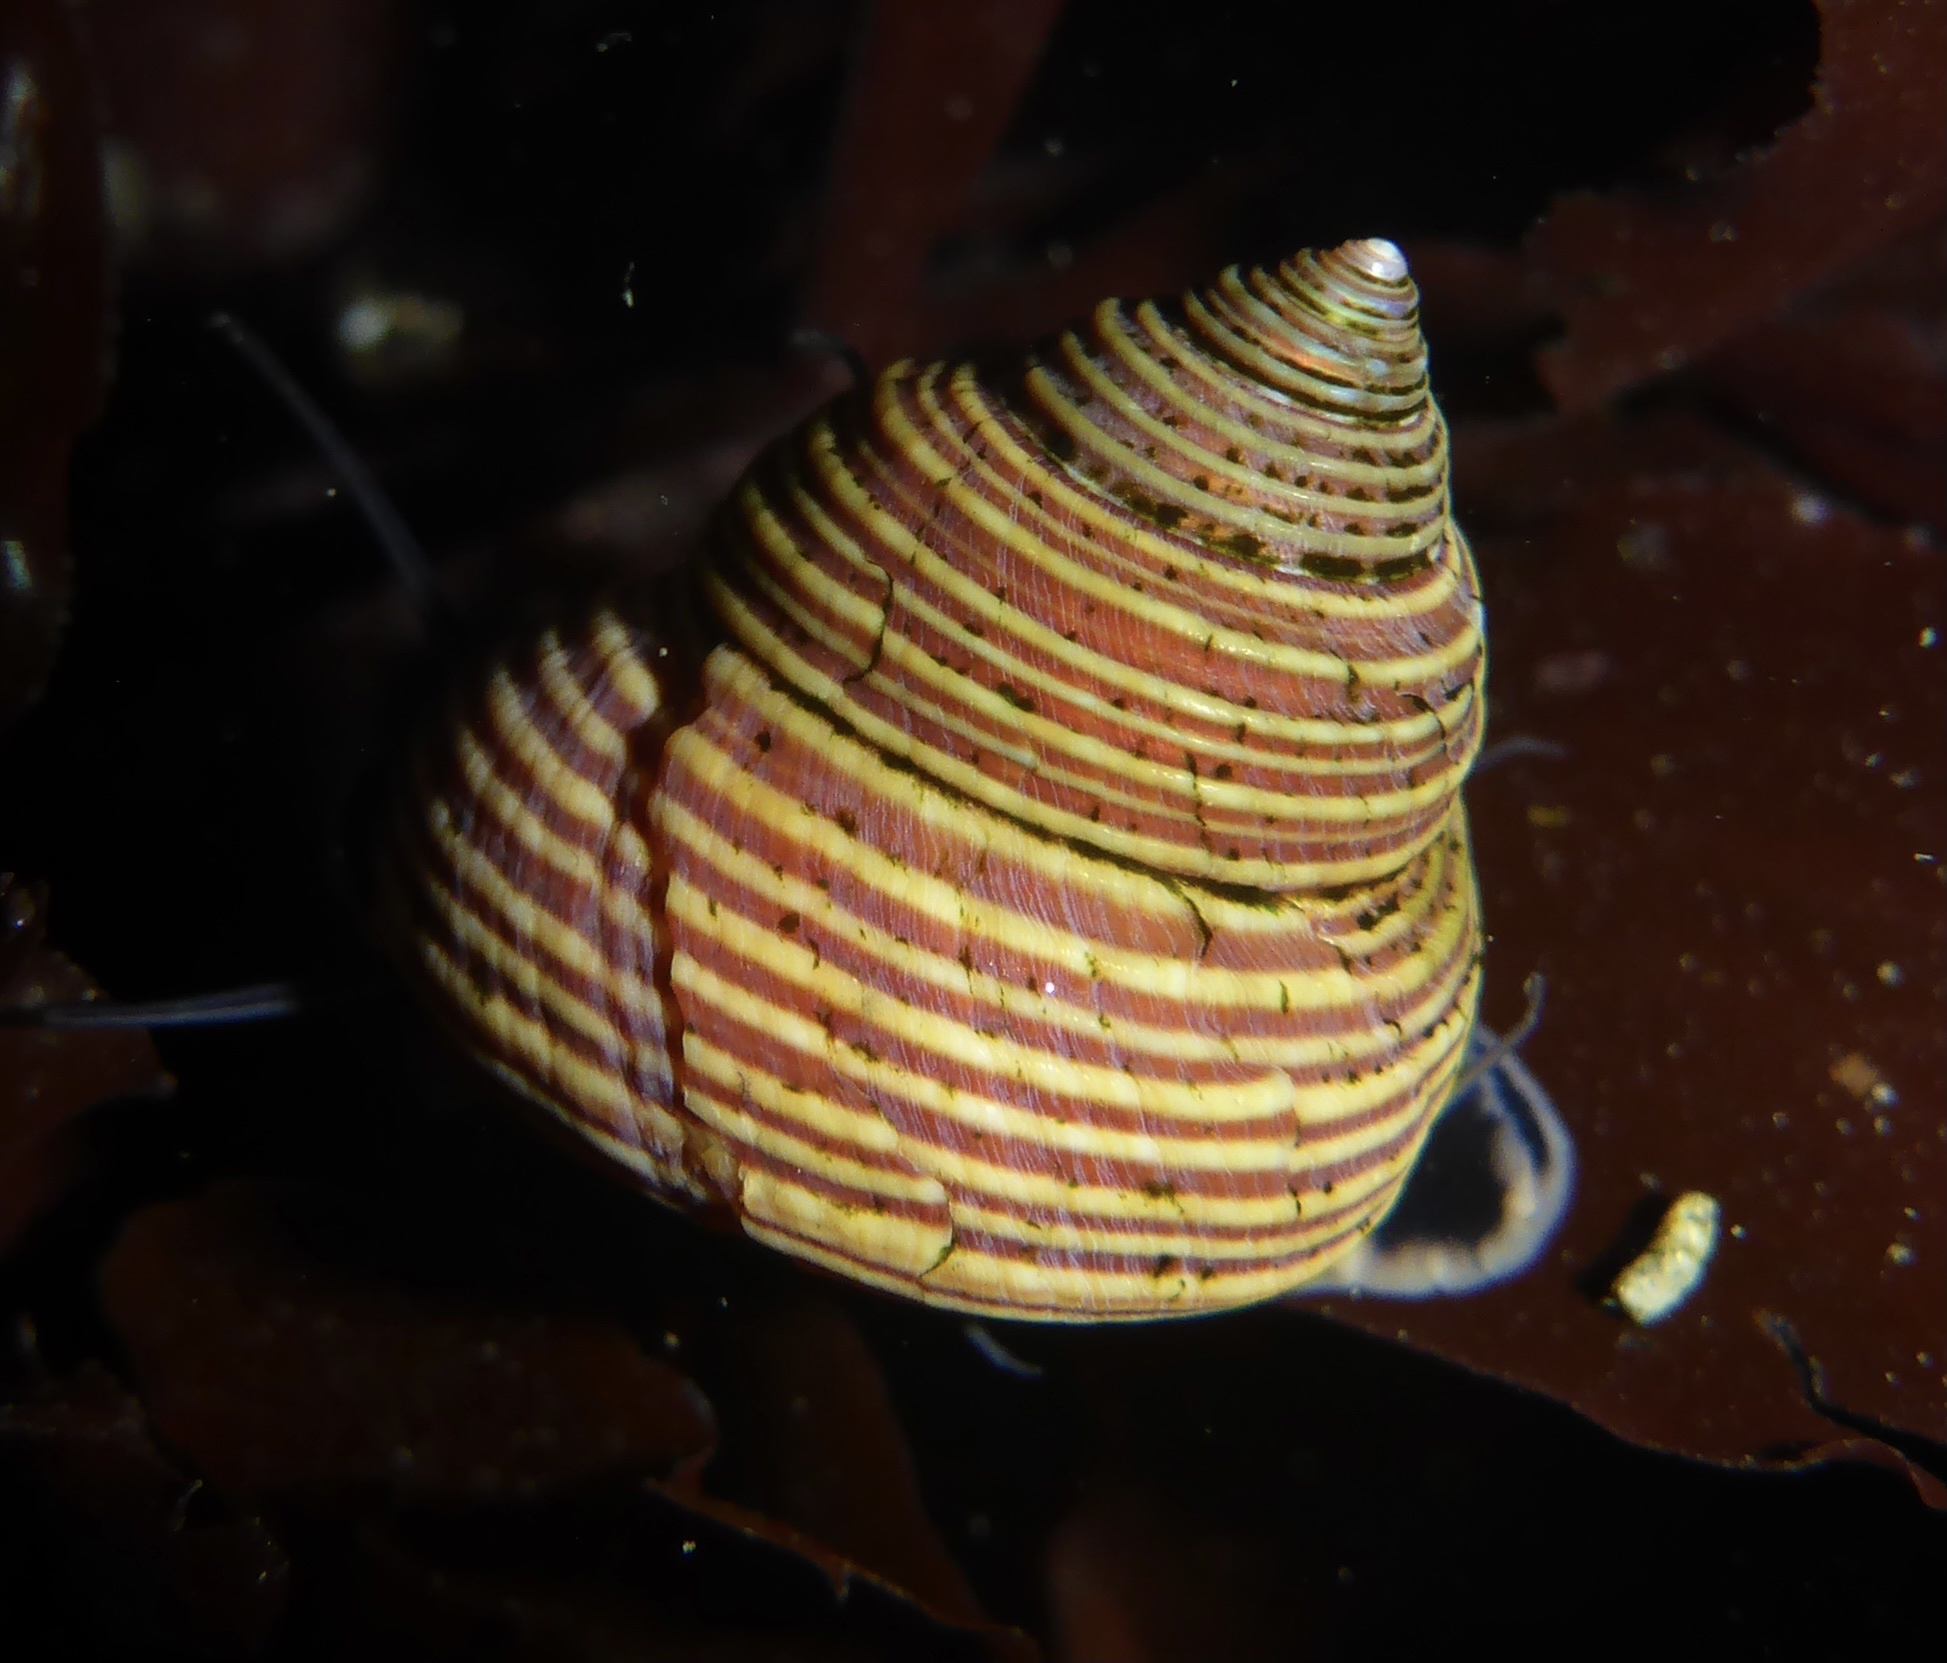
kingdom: Animalia
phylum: Mollusca
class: Gastropoda
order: Trochida
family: Calliostomatidae
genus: Calliostoma
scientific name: Calliostoma ligatum
